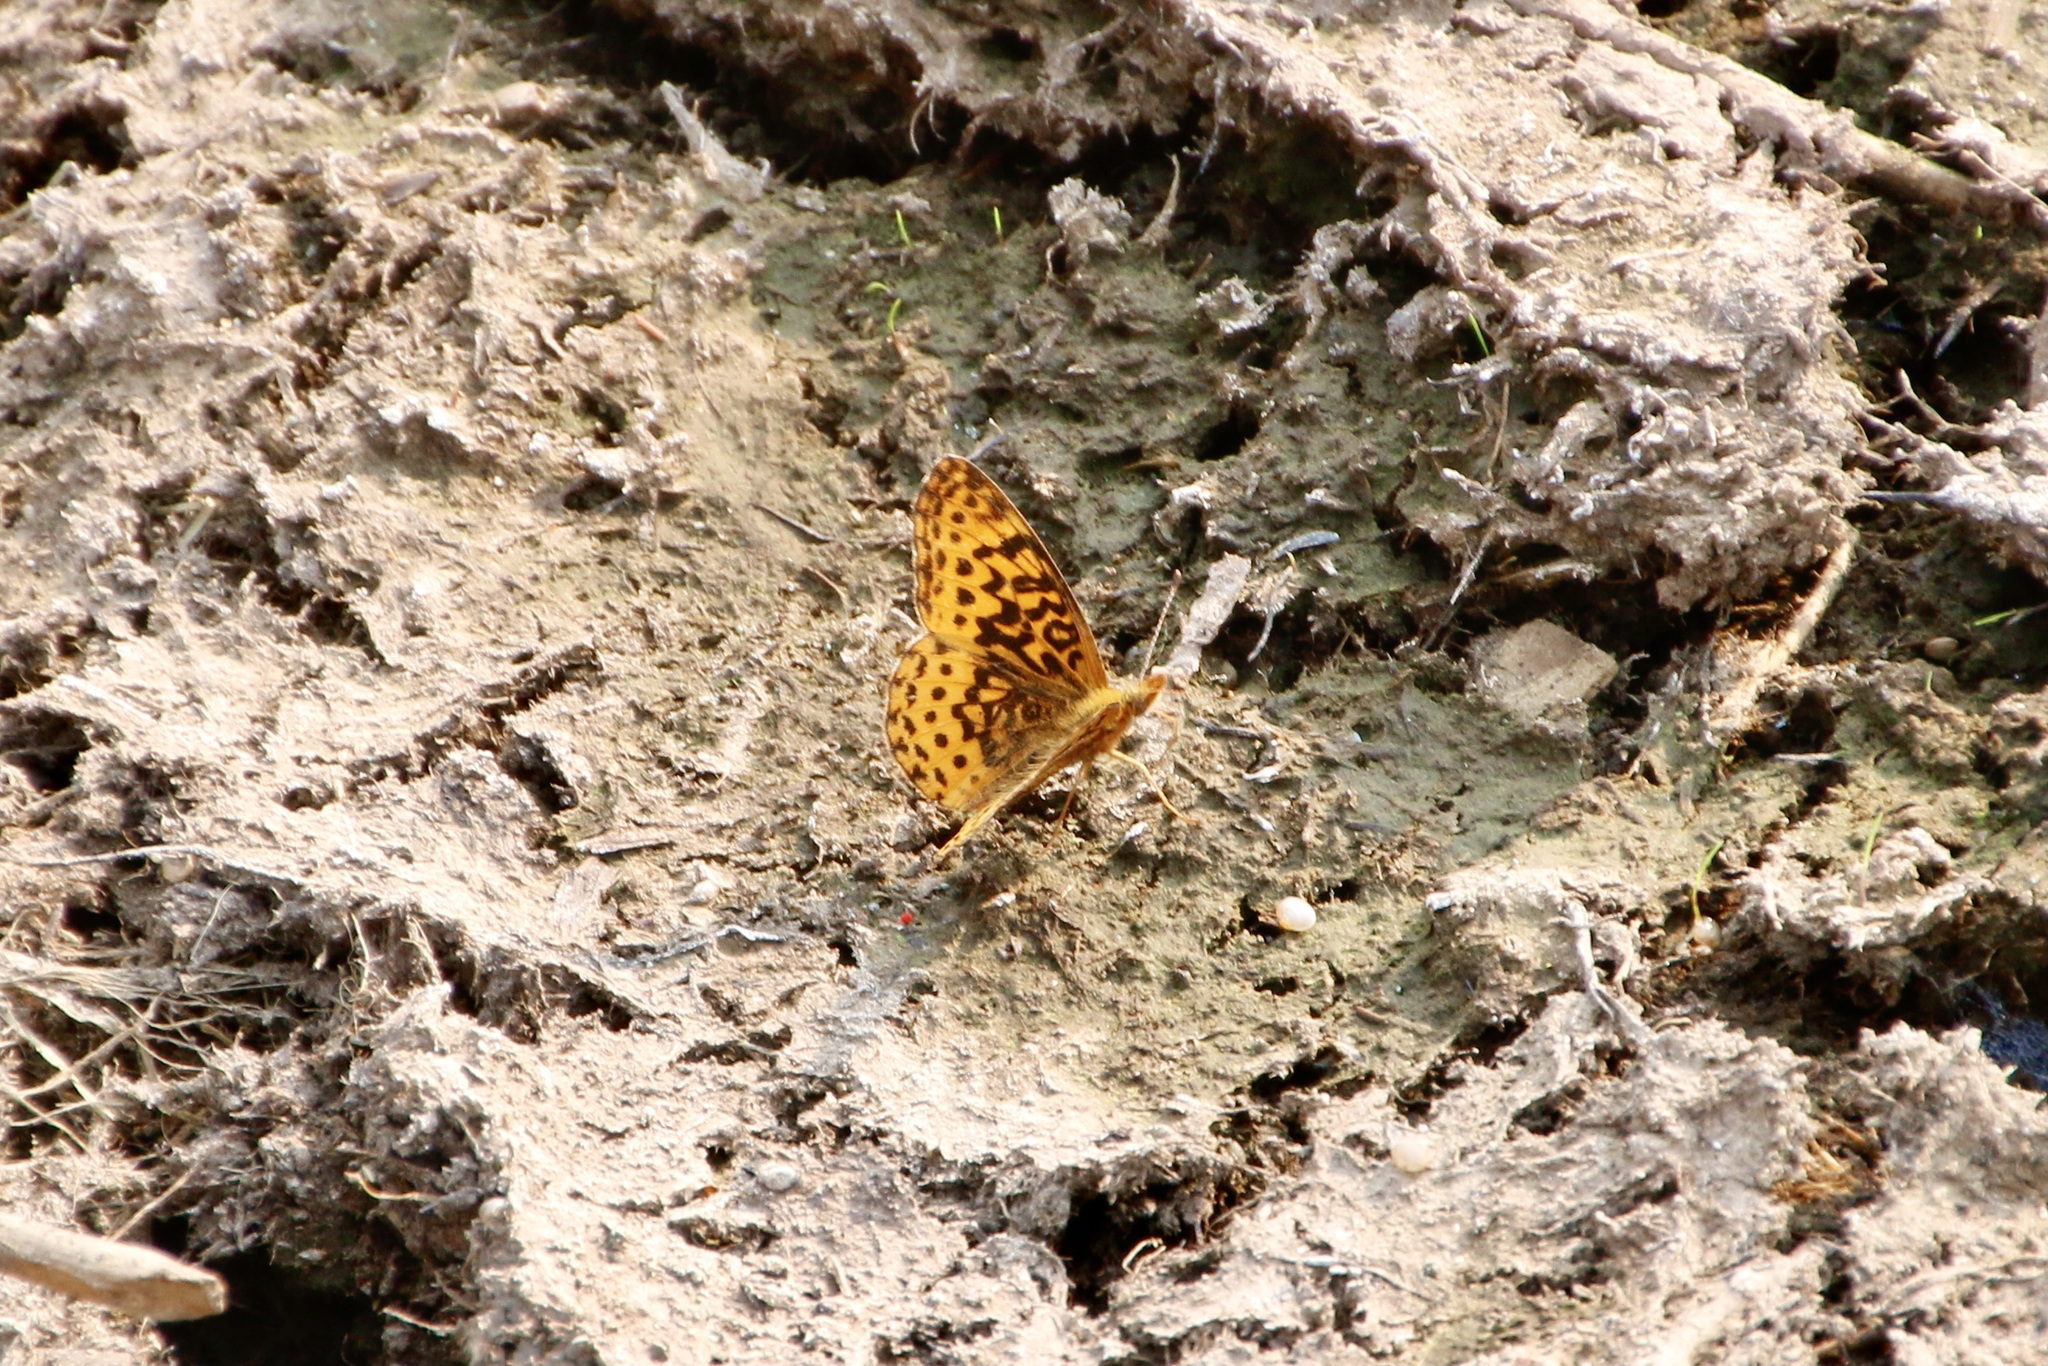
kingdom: Animalia
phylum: Arthropoda
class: Insecta
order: Lepidoptera
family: Nymphalidae
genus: Clossiana
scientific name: Clossiana toddi
